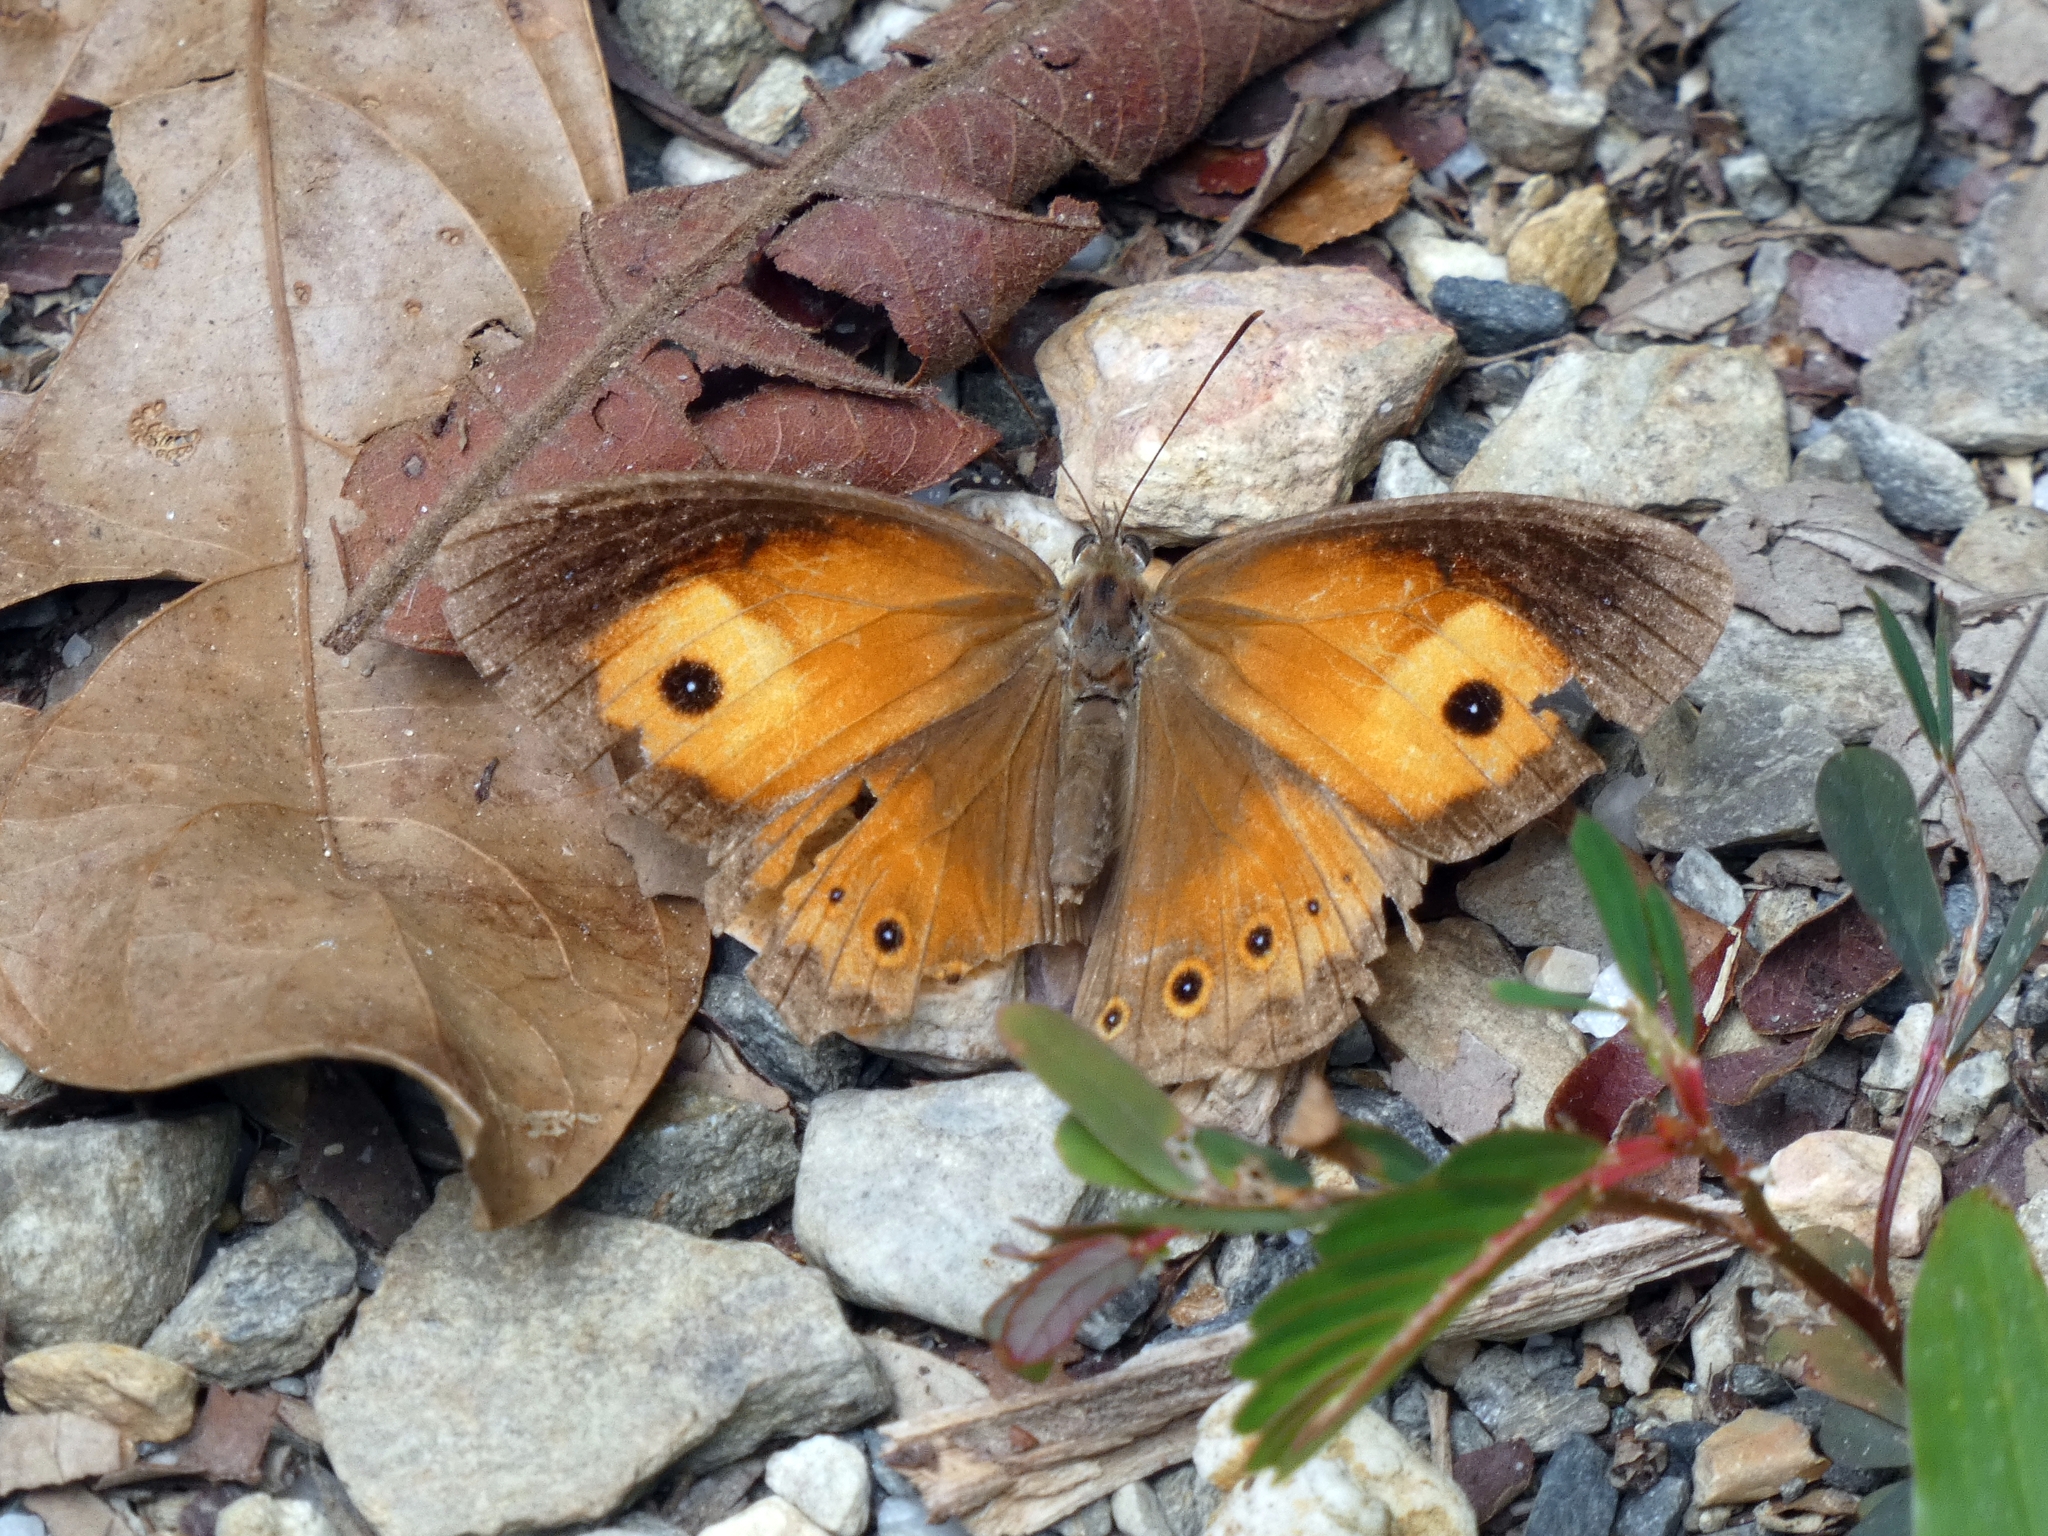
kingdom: Animalia
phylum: Arthropoda
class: Insecta
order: Lepidoptera
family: Nymphalidae
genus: Mycalesis
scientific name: Mycalesis terminus
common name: Orange bushbrown
